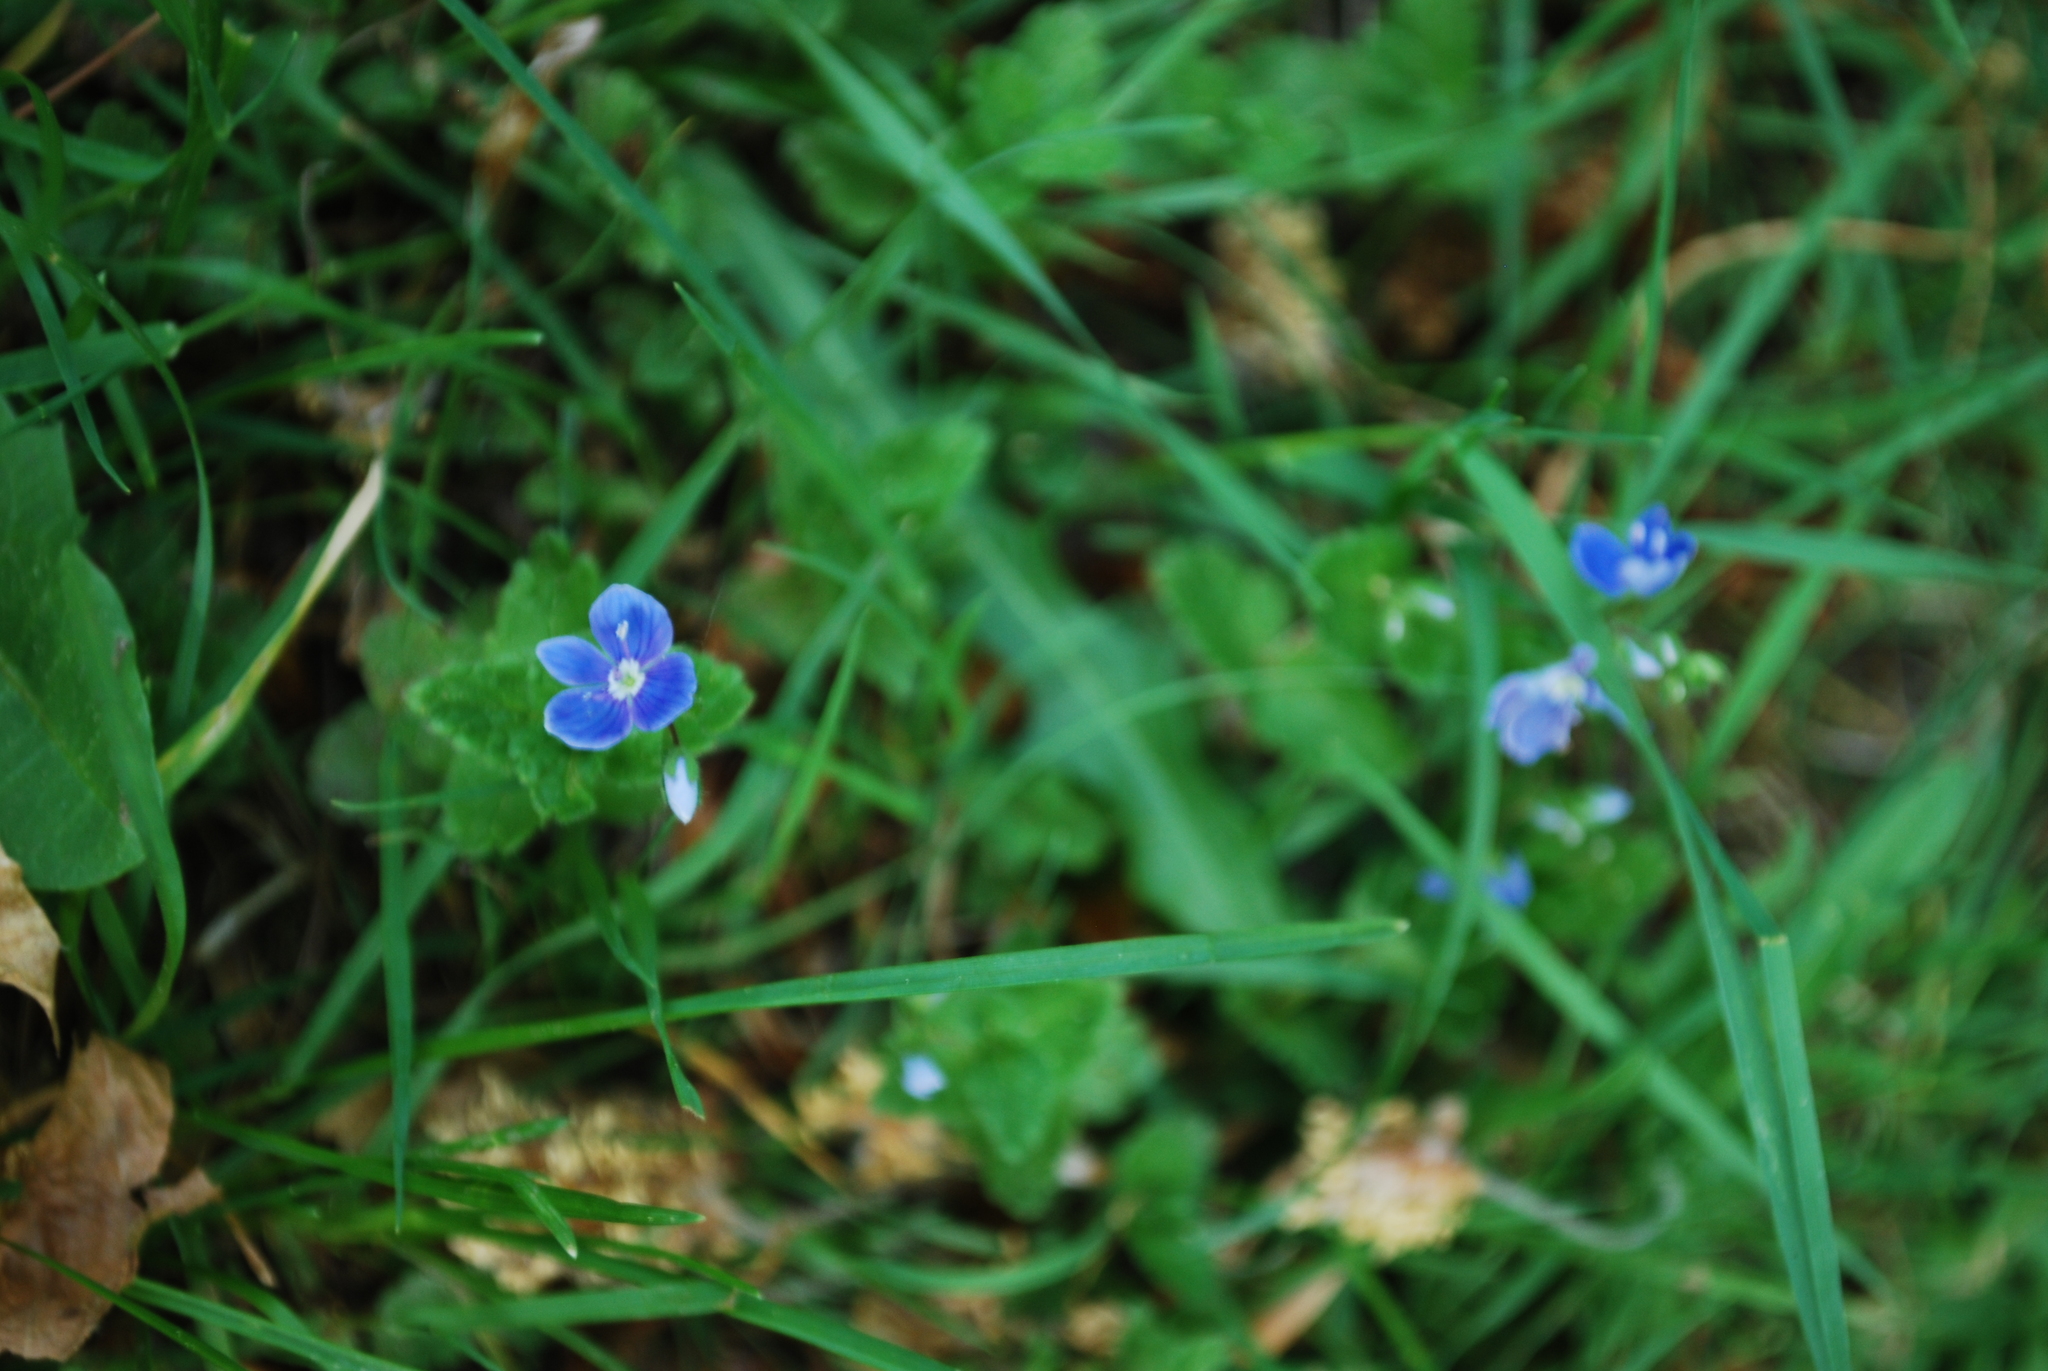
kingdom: Plantae
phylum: Tracheophyta
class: Magnoliopsida
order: Lamiales
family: Plantaginaceae
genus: Veronica
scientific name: Veronica chamaedrys
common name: Germander speedwell
